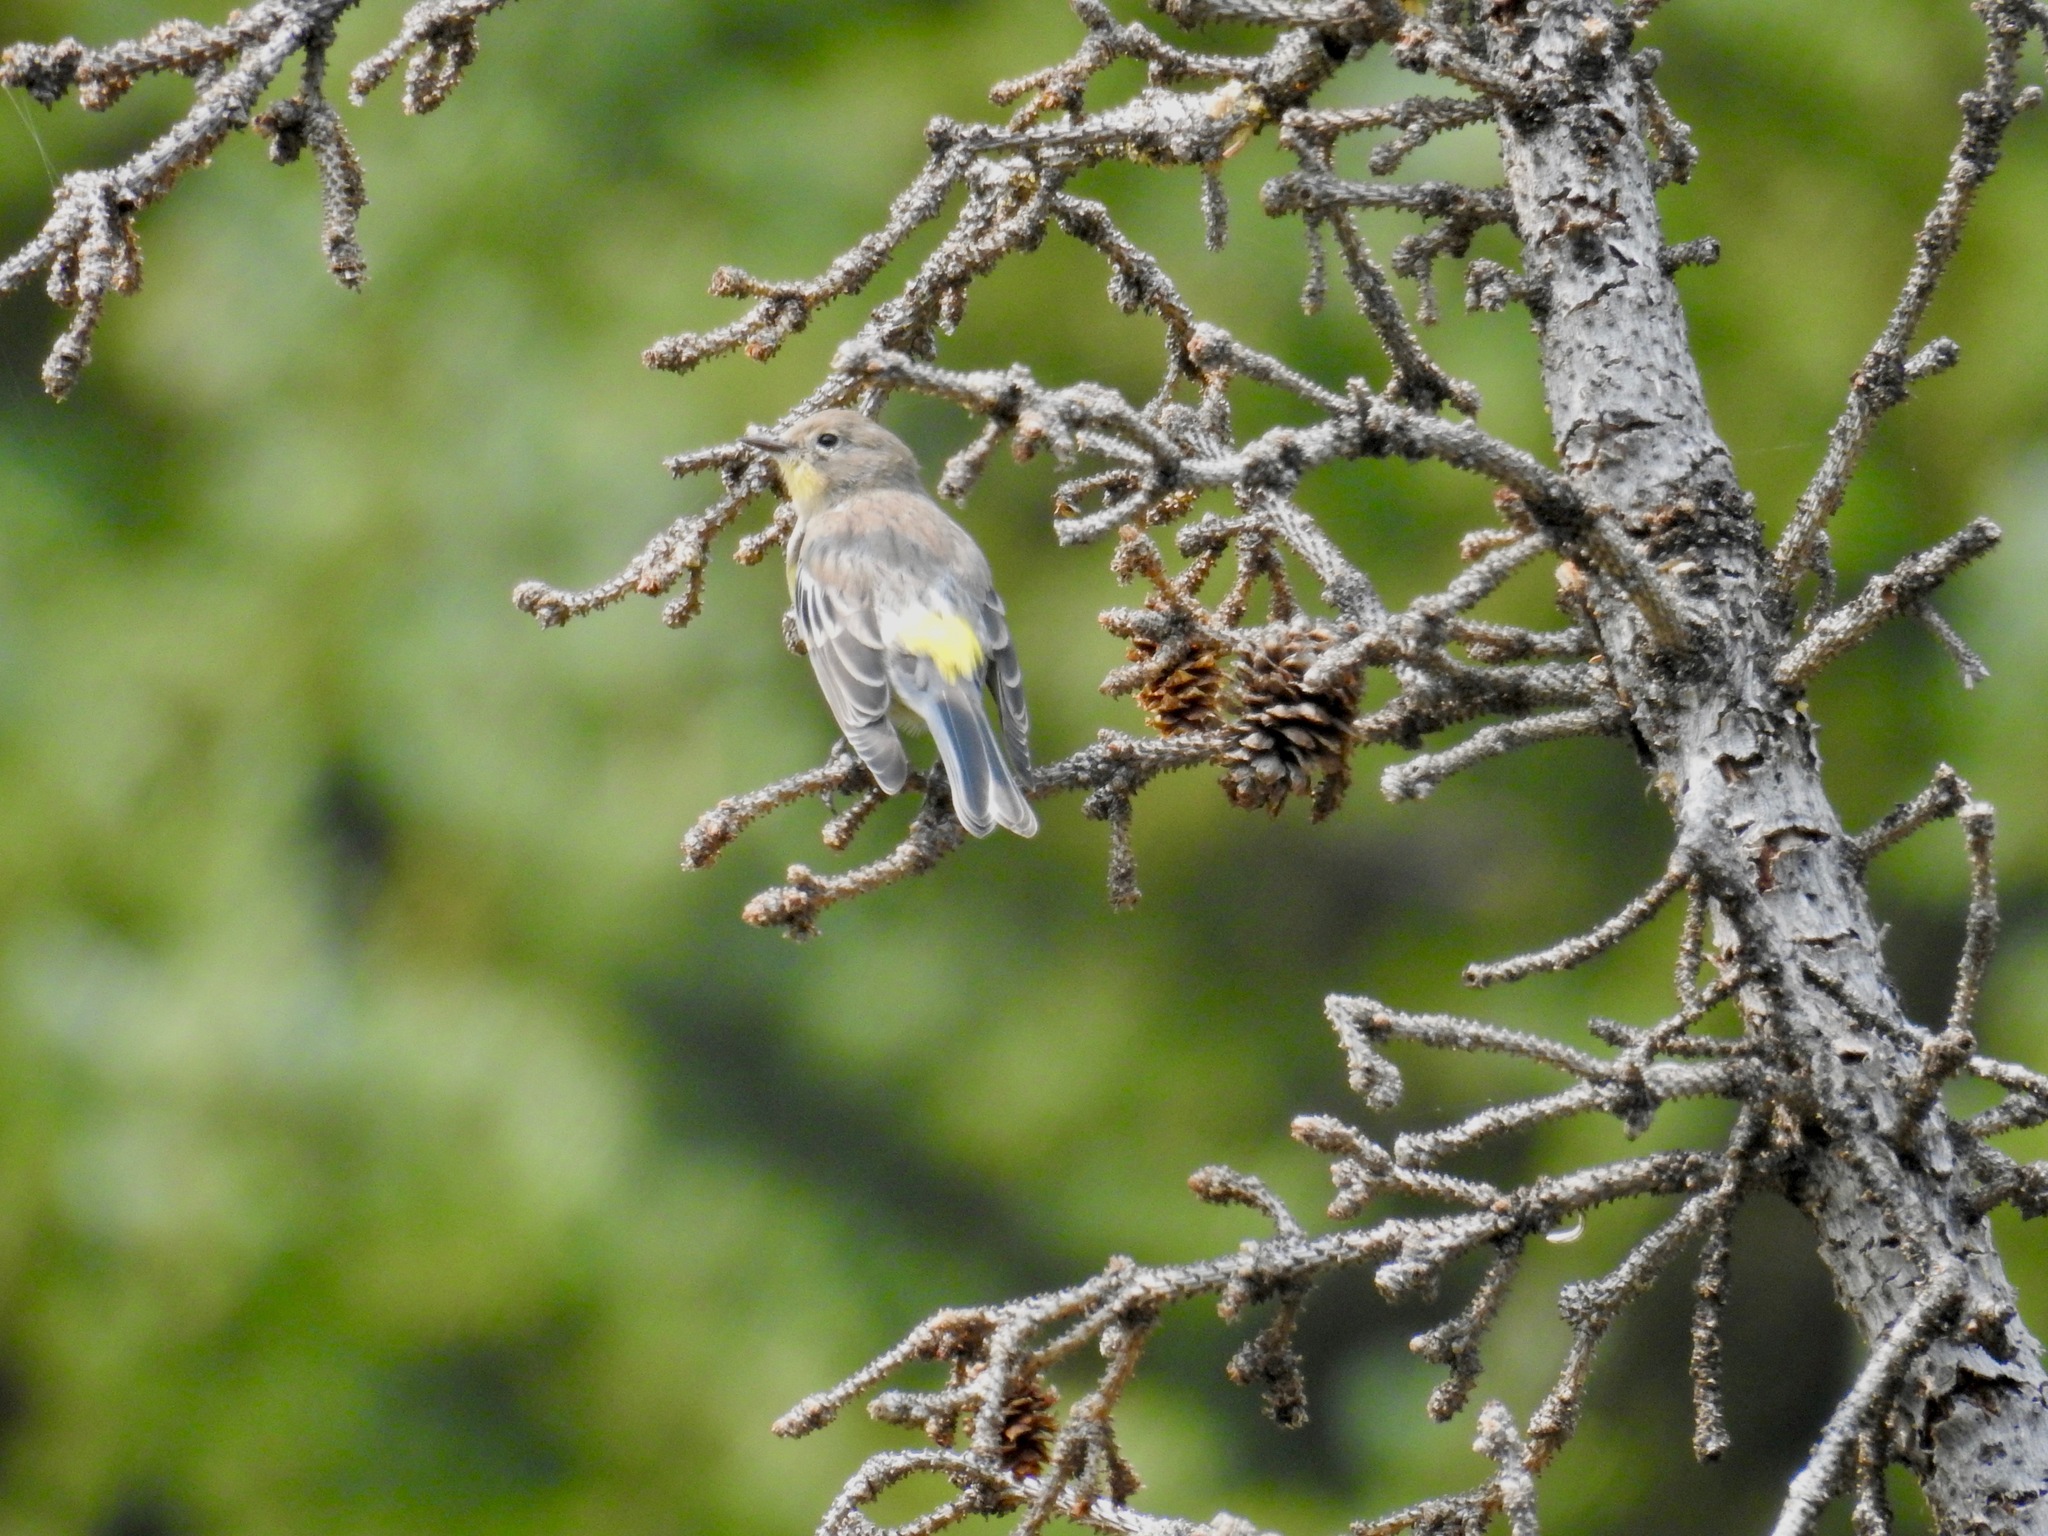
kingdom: Animalia
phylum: Chordata
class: Aves
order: Passeriformes
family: Parulidae
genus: Setophaga
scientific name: Setophaga auduboni
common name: Audubon's warbler
